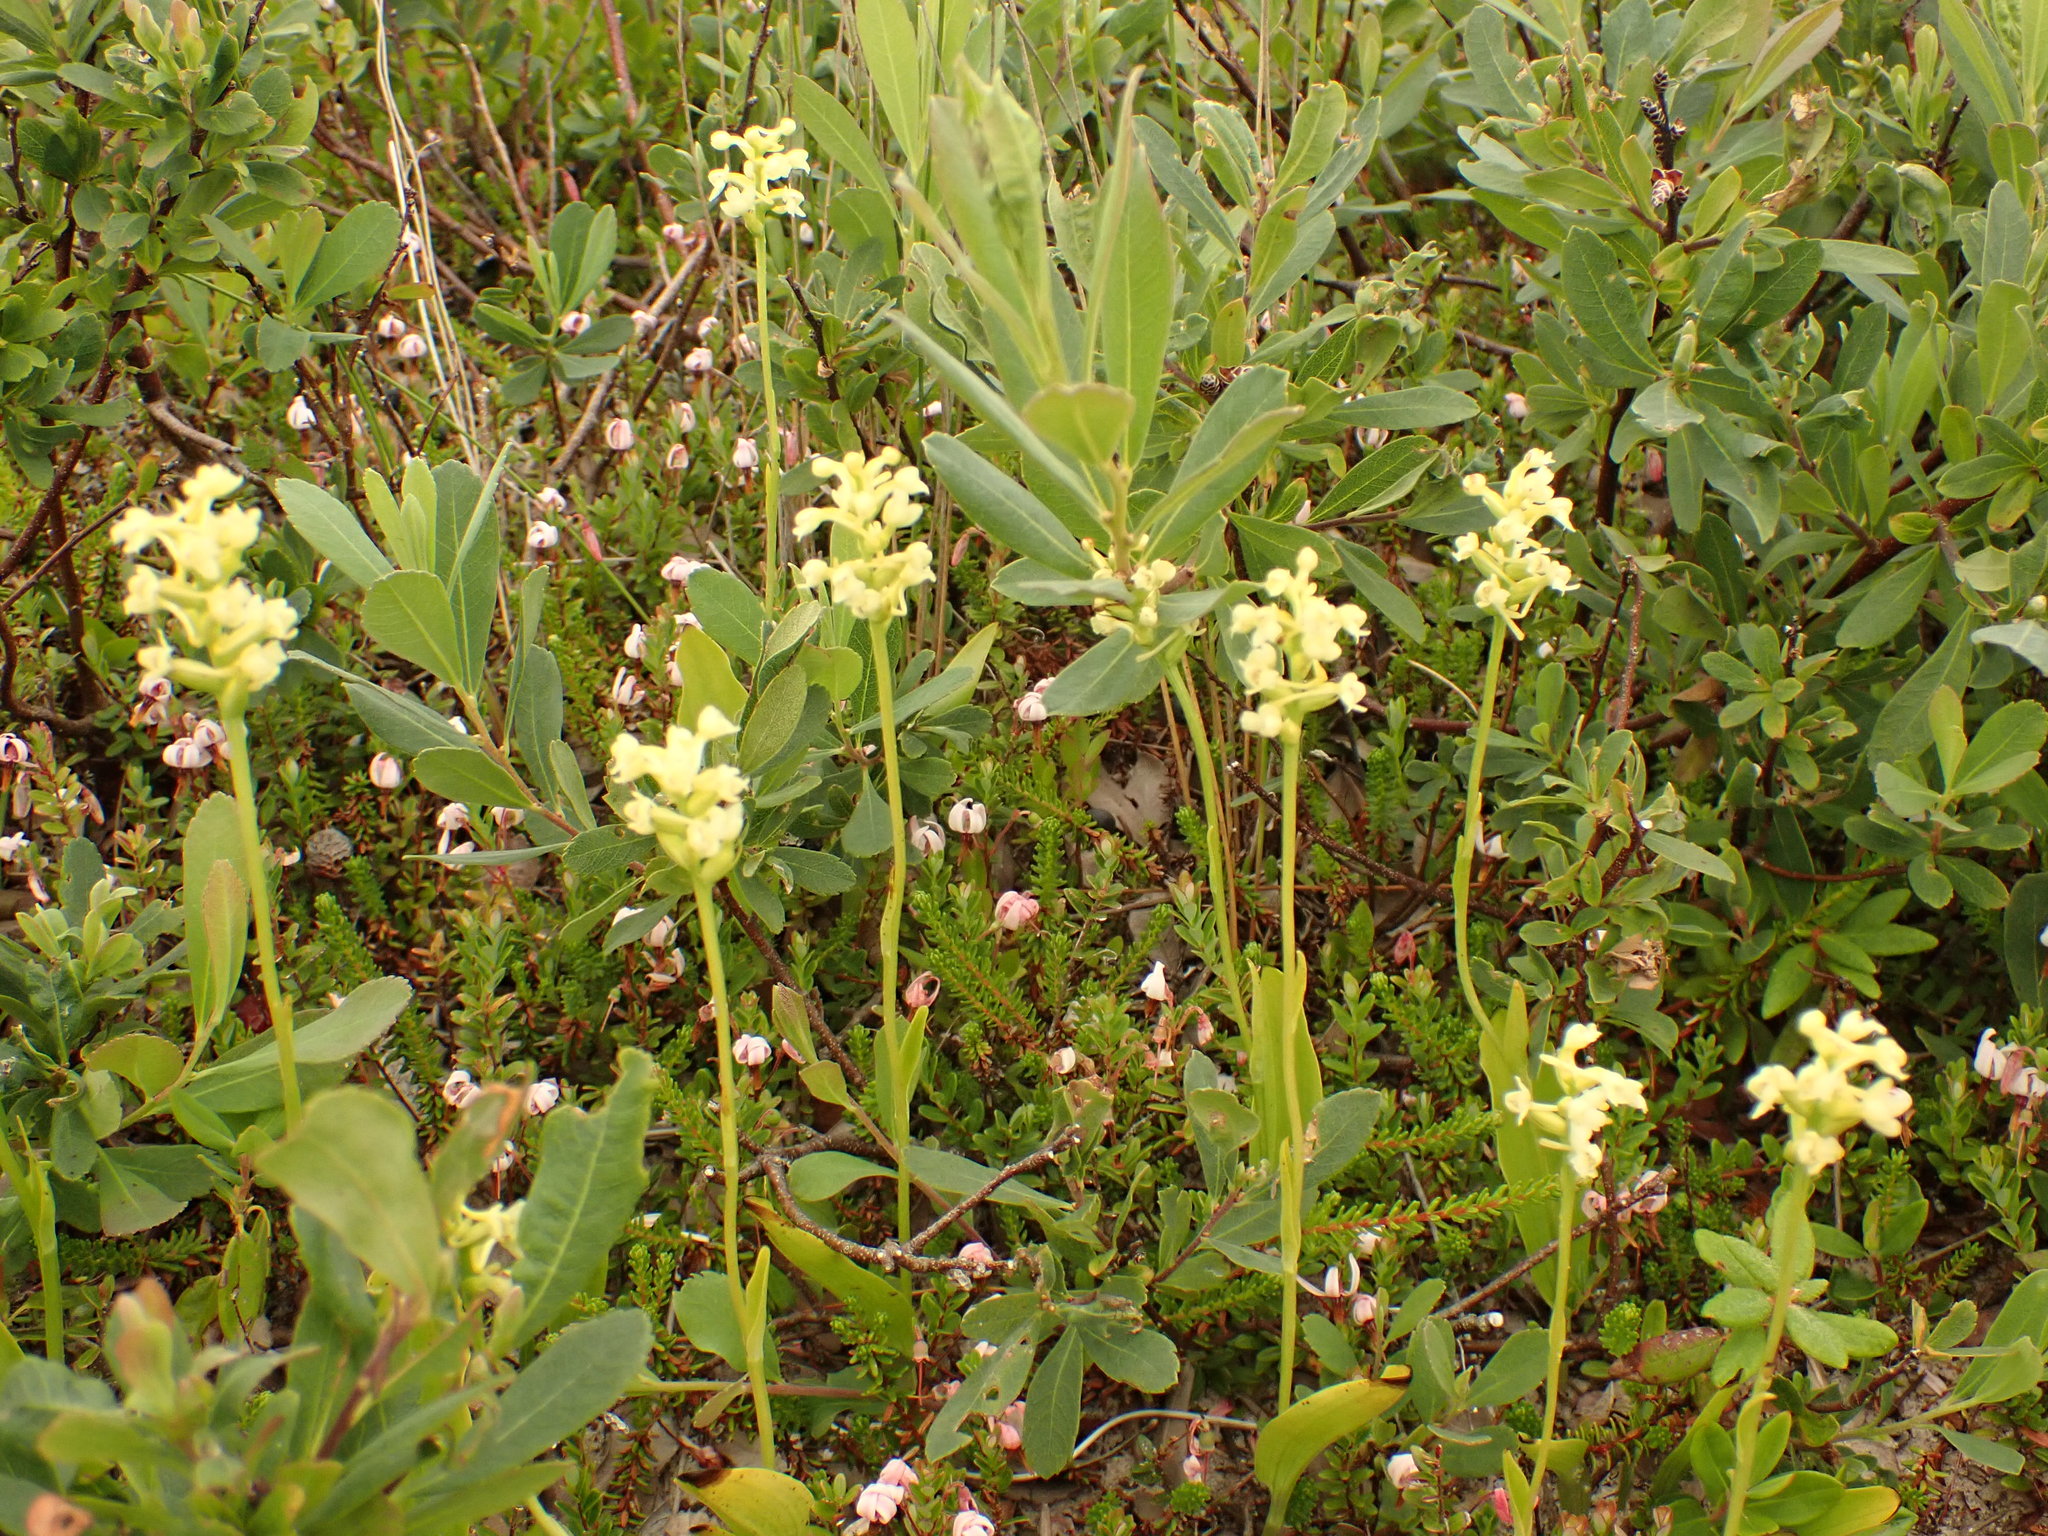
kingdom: Plantae
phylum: Tracheophyta
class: Liliopsida
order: Asparagales
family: Orchidaceae
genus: Platanthera
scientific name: Platanthera clavellata
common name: Club-spur orchid
